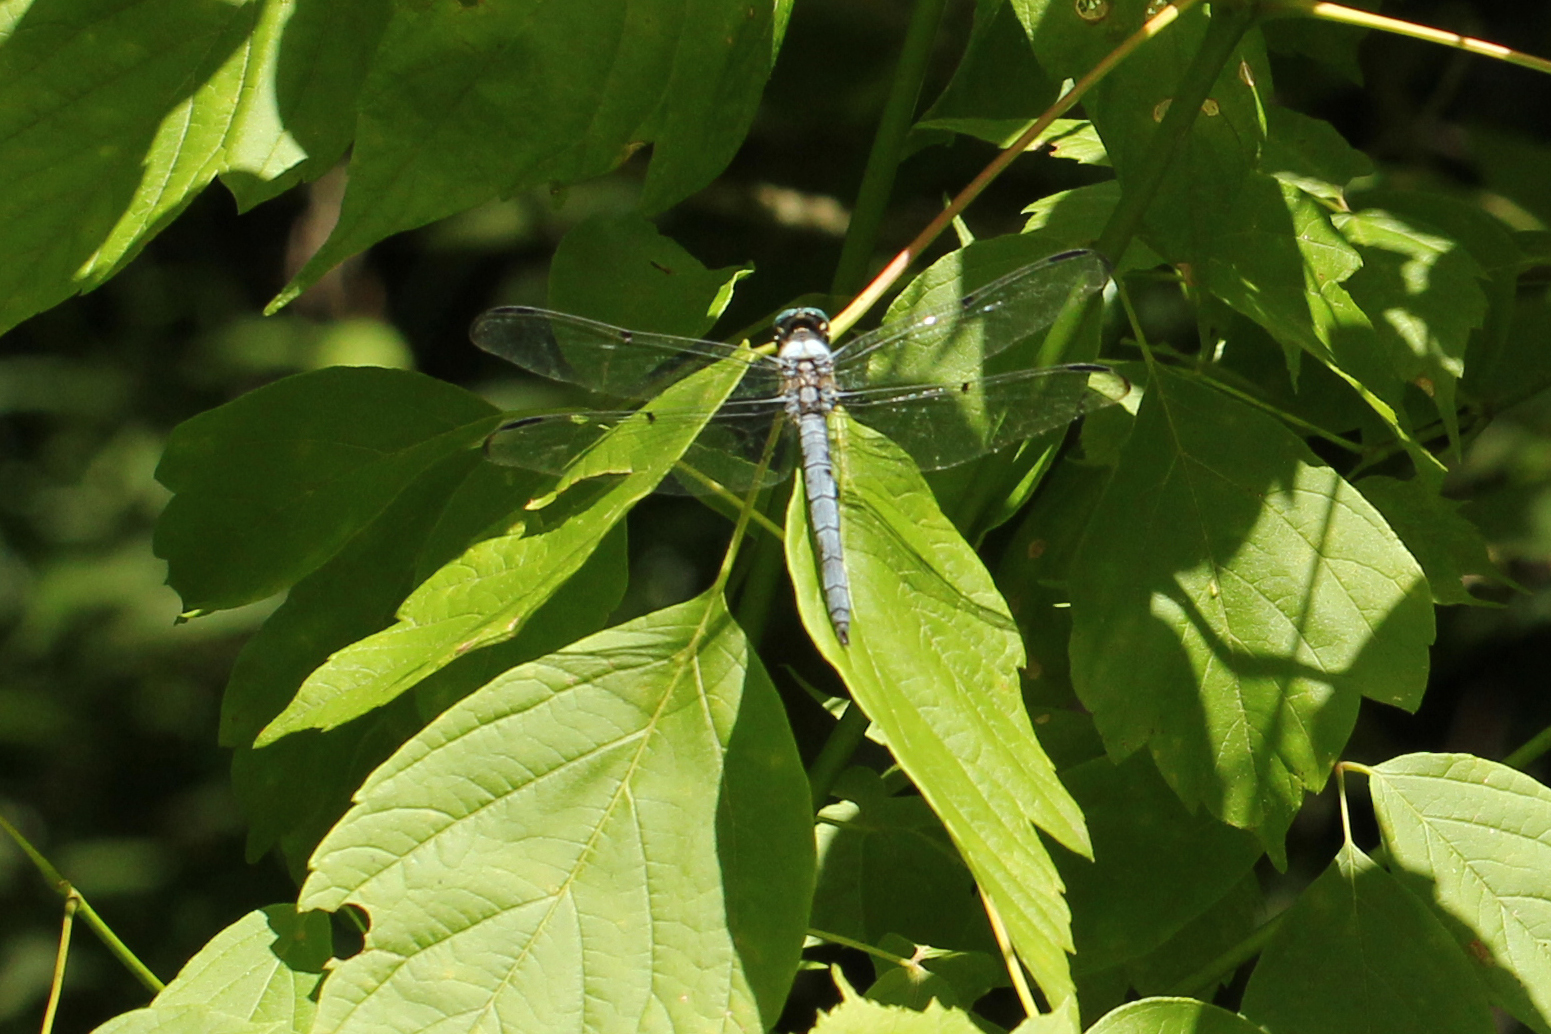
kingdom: Animalia
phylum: Arthropoda
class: Insecta
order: Odonata
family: Libellulidae
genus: Libellula
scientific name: Libellula vibrans
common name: Great blue skimmer
